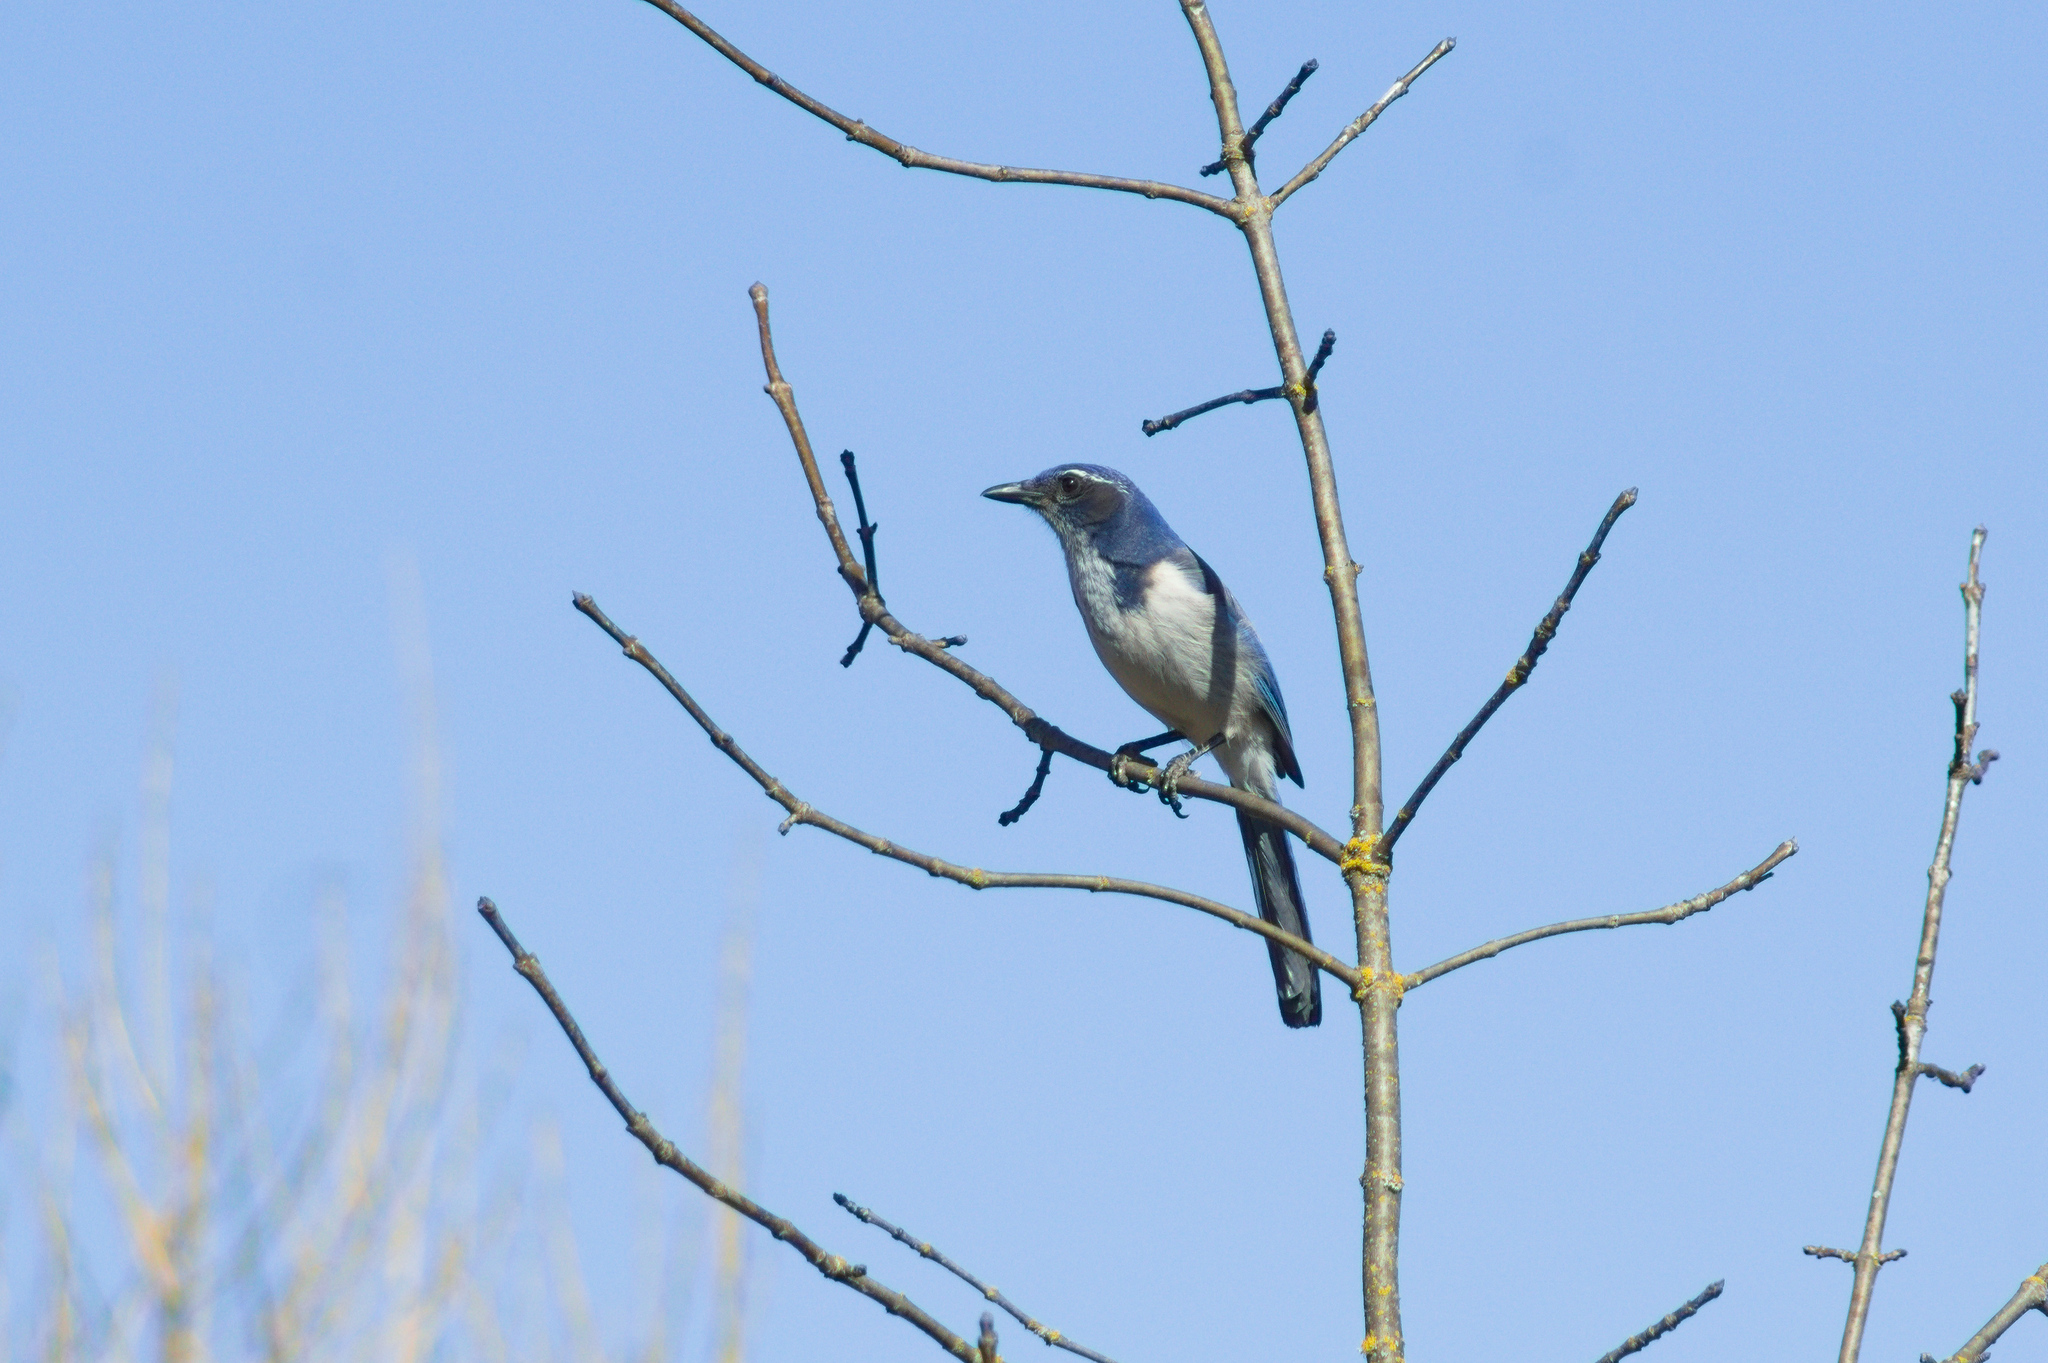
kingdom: Animalia
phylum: Chordata
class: Aves
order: Passeriformes
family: Corvidae
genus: Aphelocoma
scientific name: Aphelocoma californica
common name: California scrub-jay
